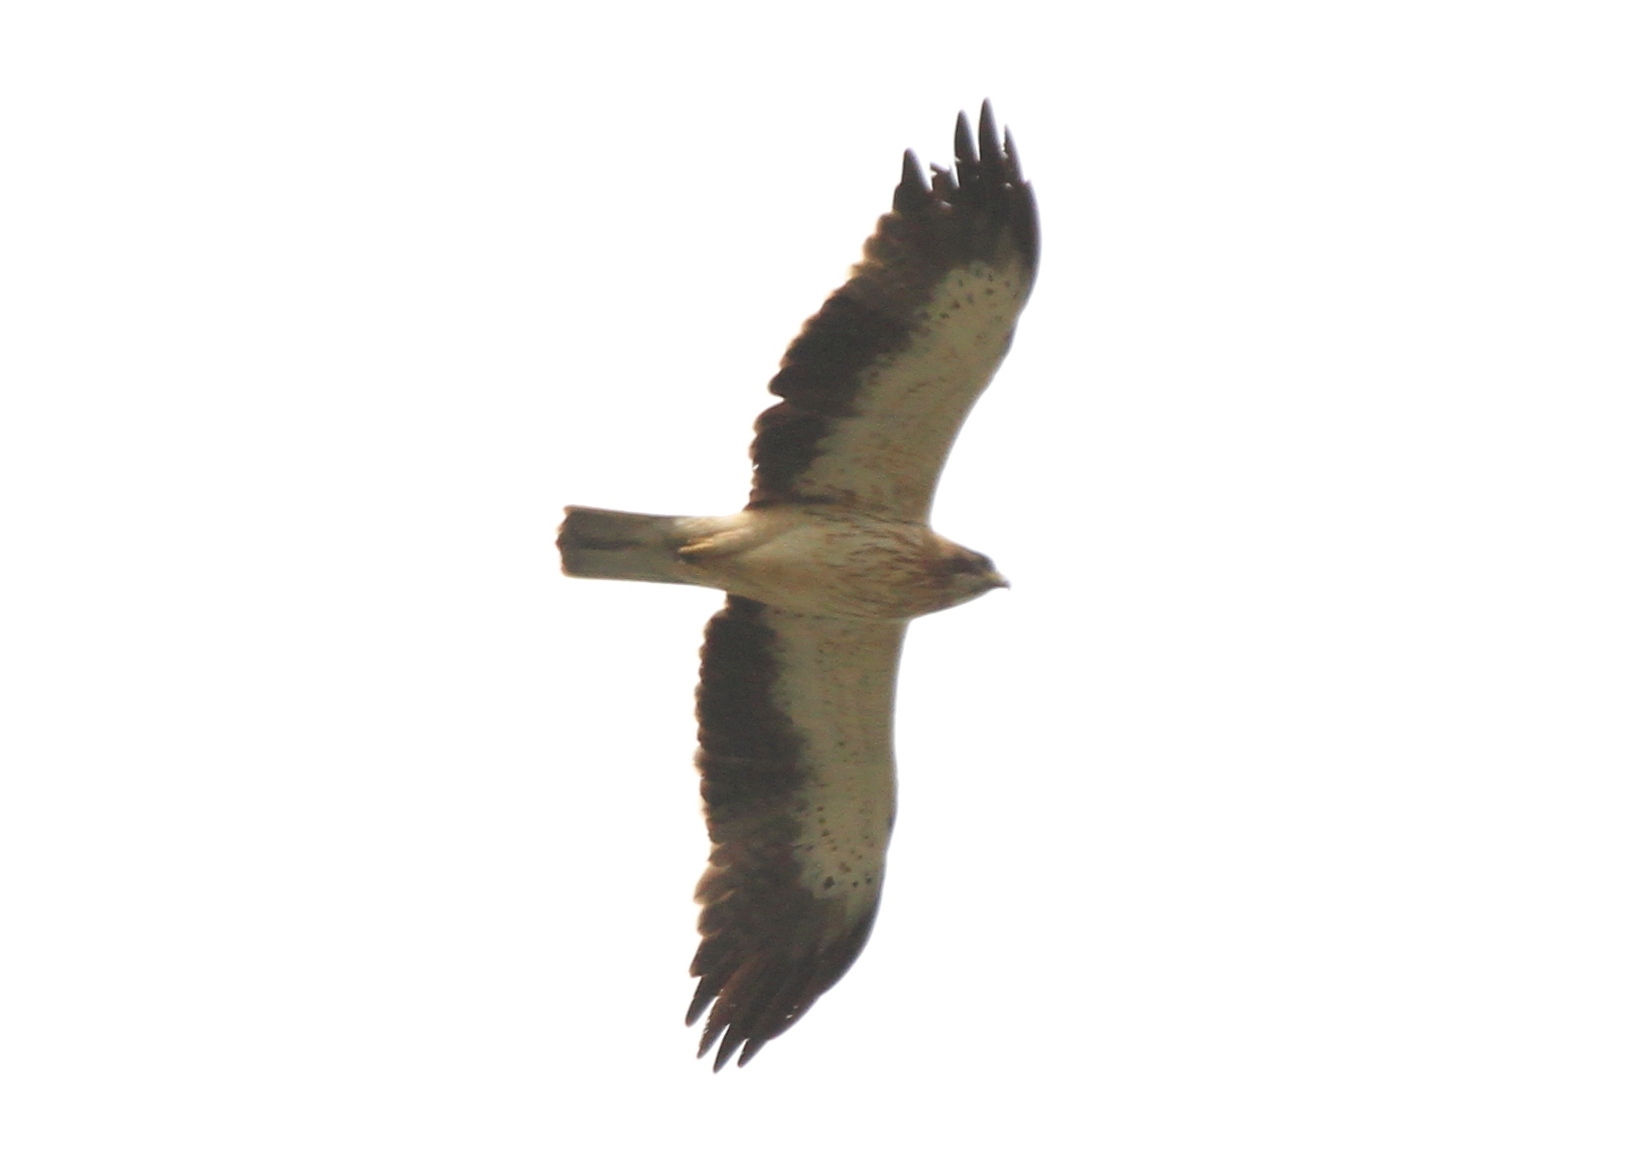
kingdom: Animalia
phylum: Chordata
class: Aves
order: Accipitriformes
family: Accipitridae
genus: Hieraaetus
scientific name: Hieraaetus pennatus
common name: Booted eagle
